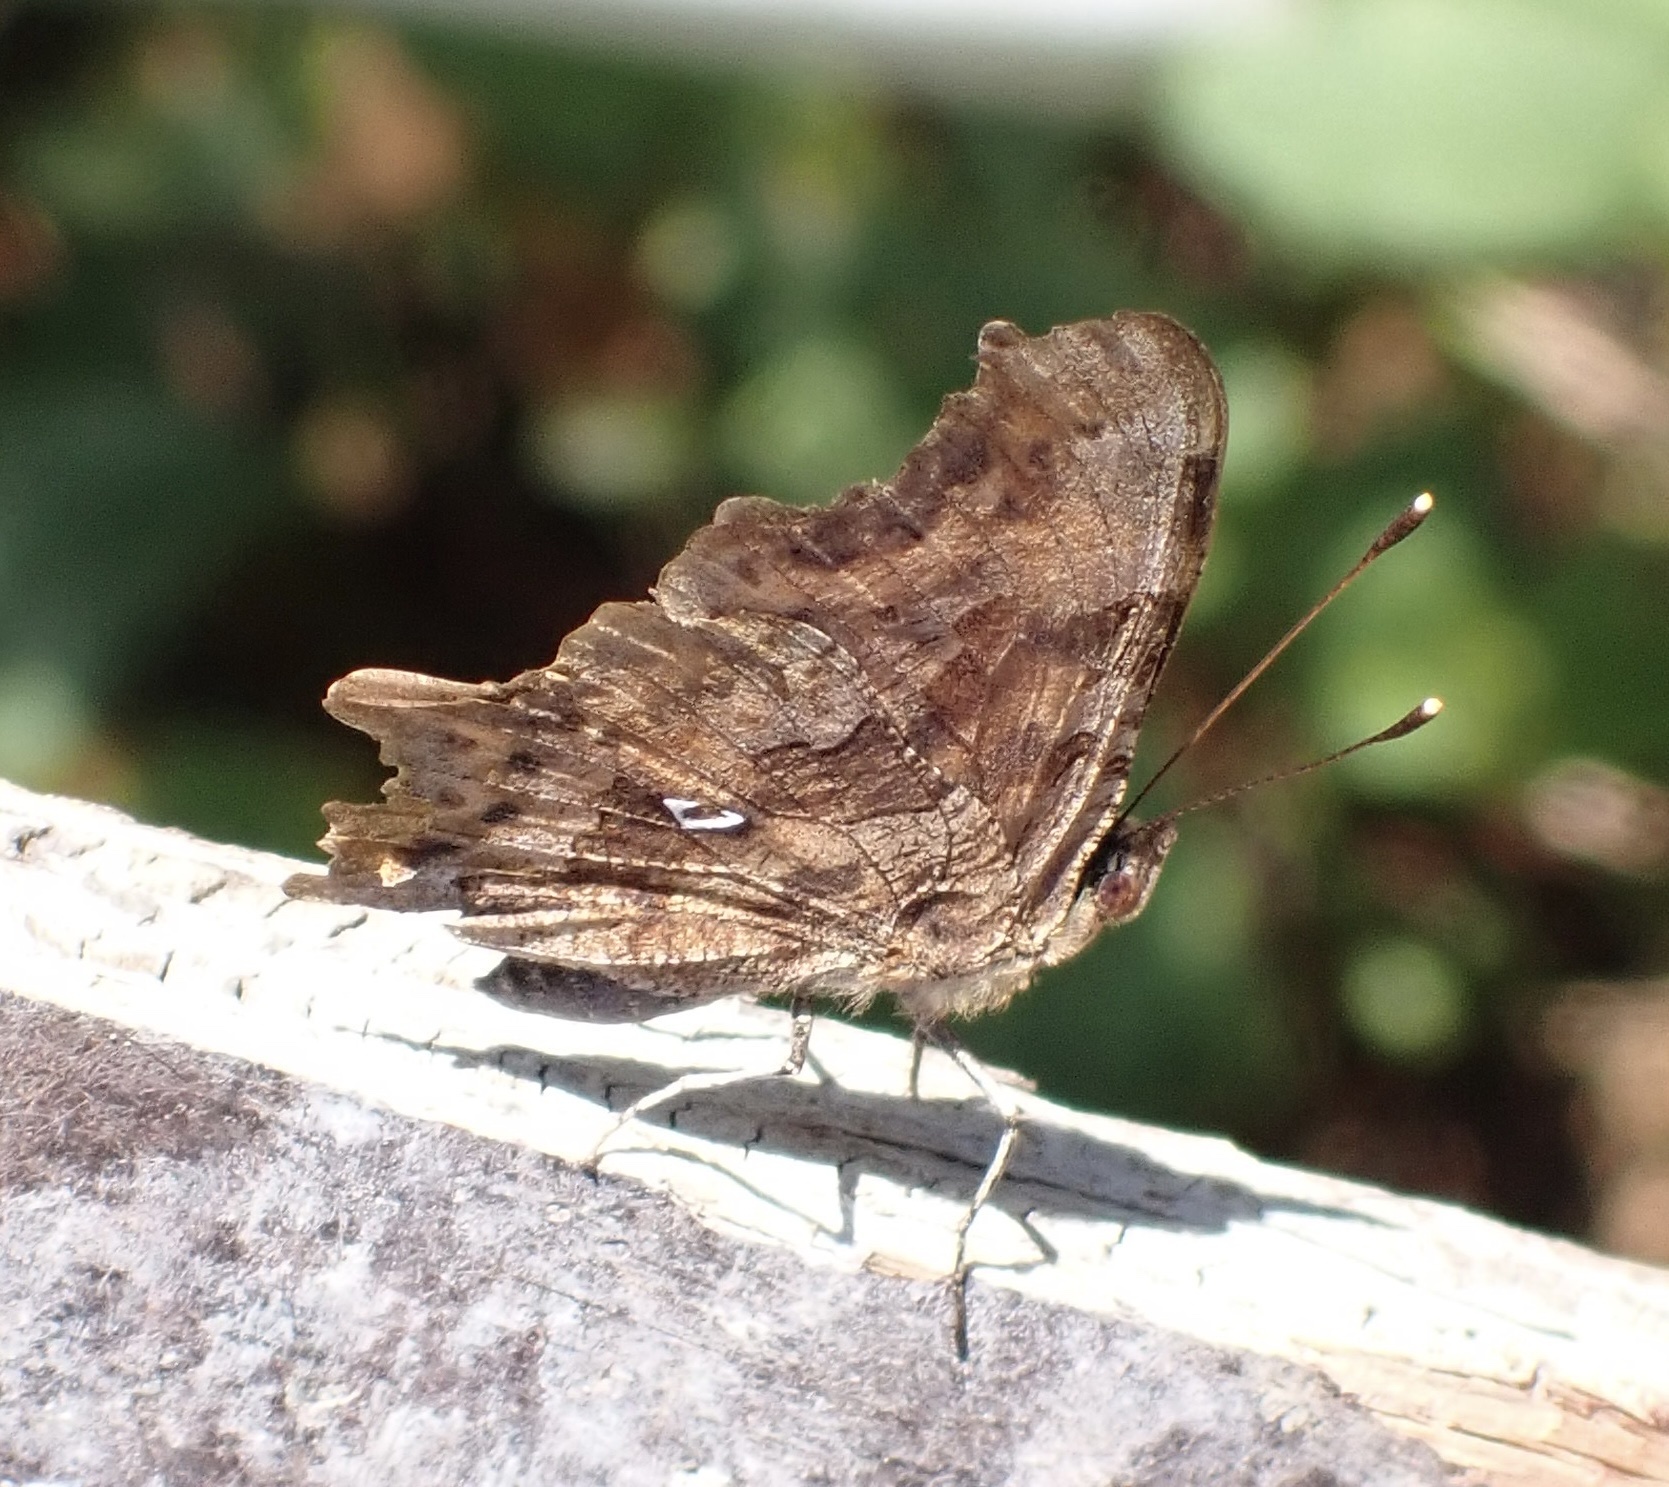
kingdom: Animalia
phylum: Arthropoda
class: Insecta
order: Lepidoptera
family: Nymphalidae
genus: Polygonia
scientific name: Polygonia c-album
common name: Comma
